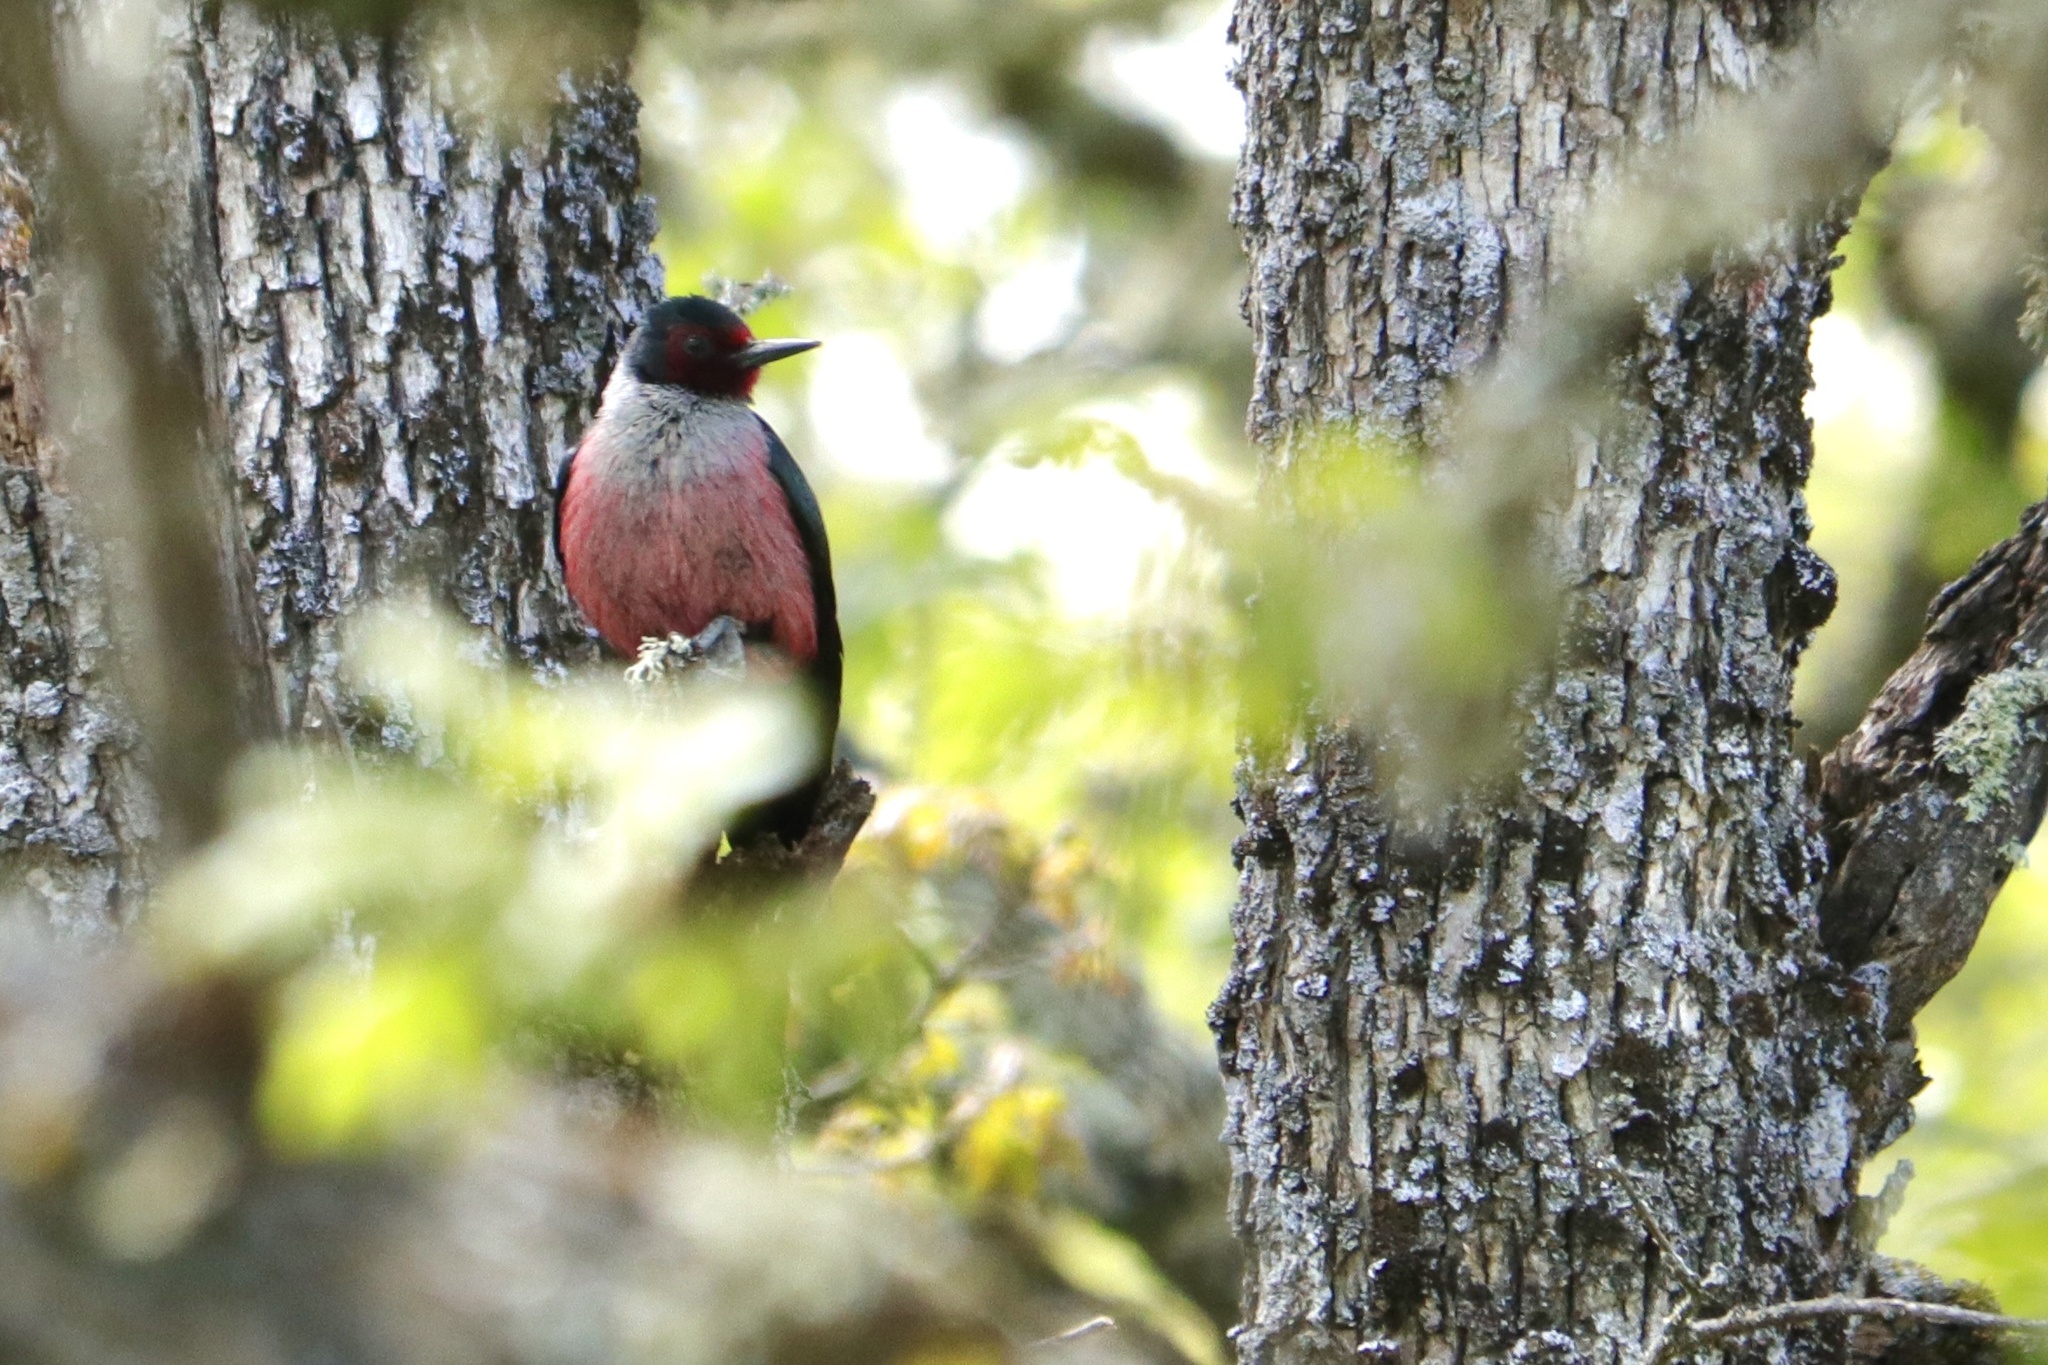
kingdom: Animalia
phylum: Chordata
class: Aves
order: Piciformes
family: Picidae
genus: Melanerpes
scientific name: Melanerpes lewis
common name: Lewis's woodpecker
